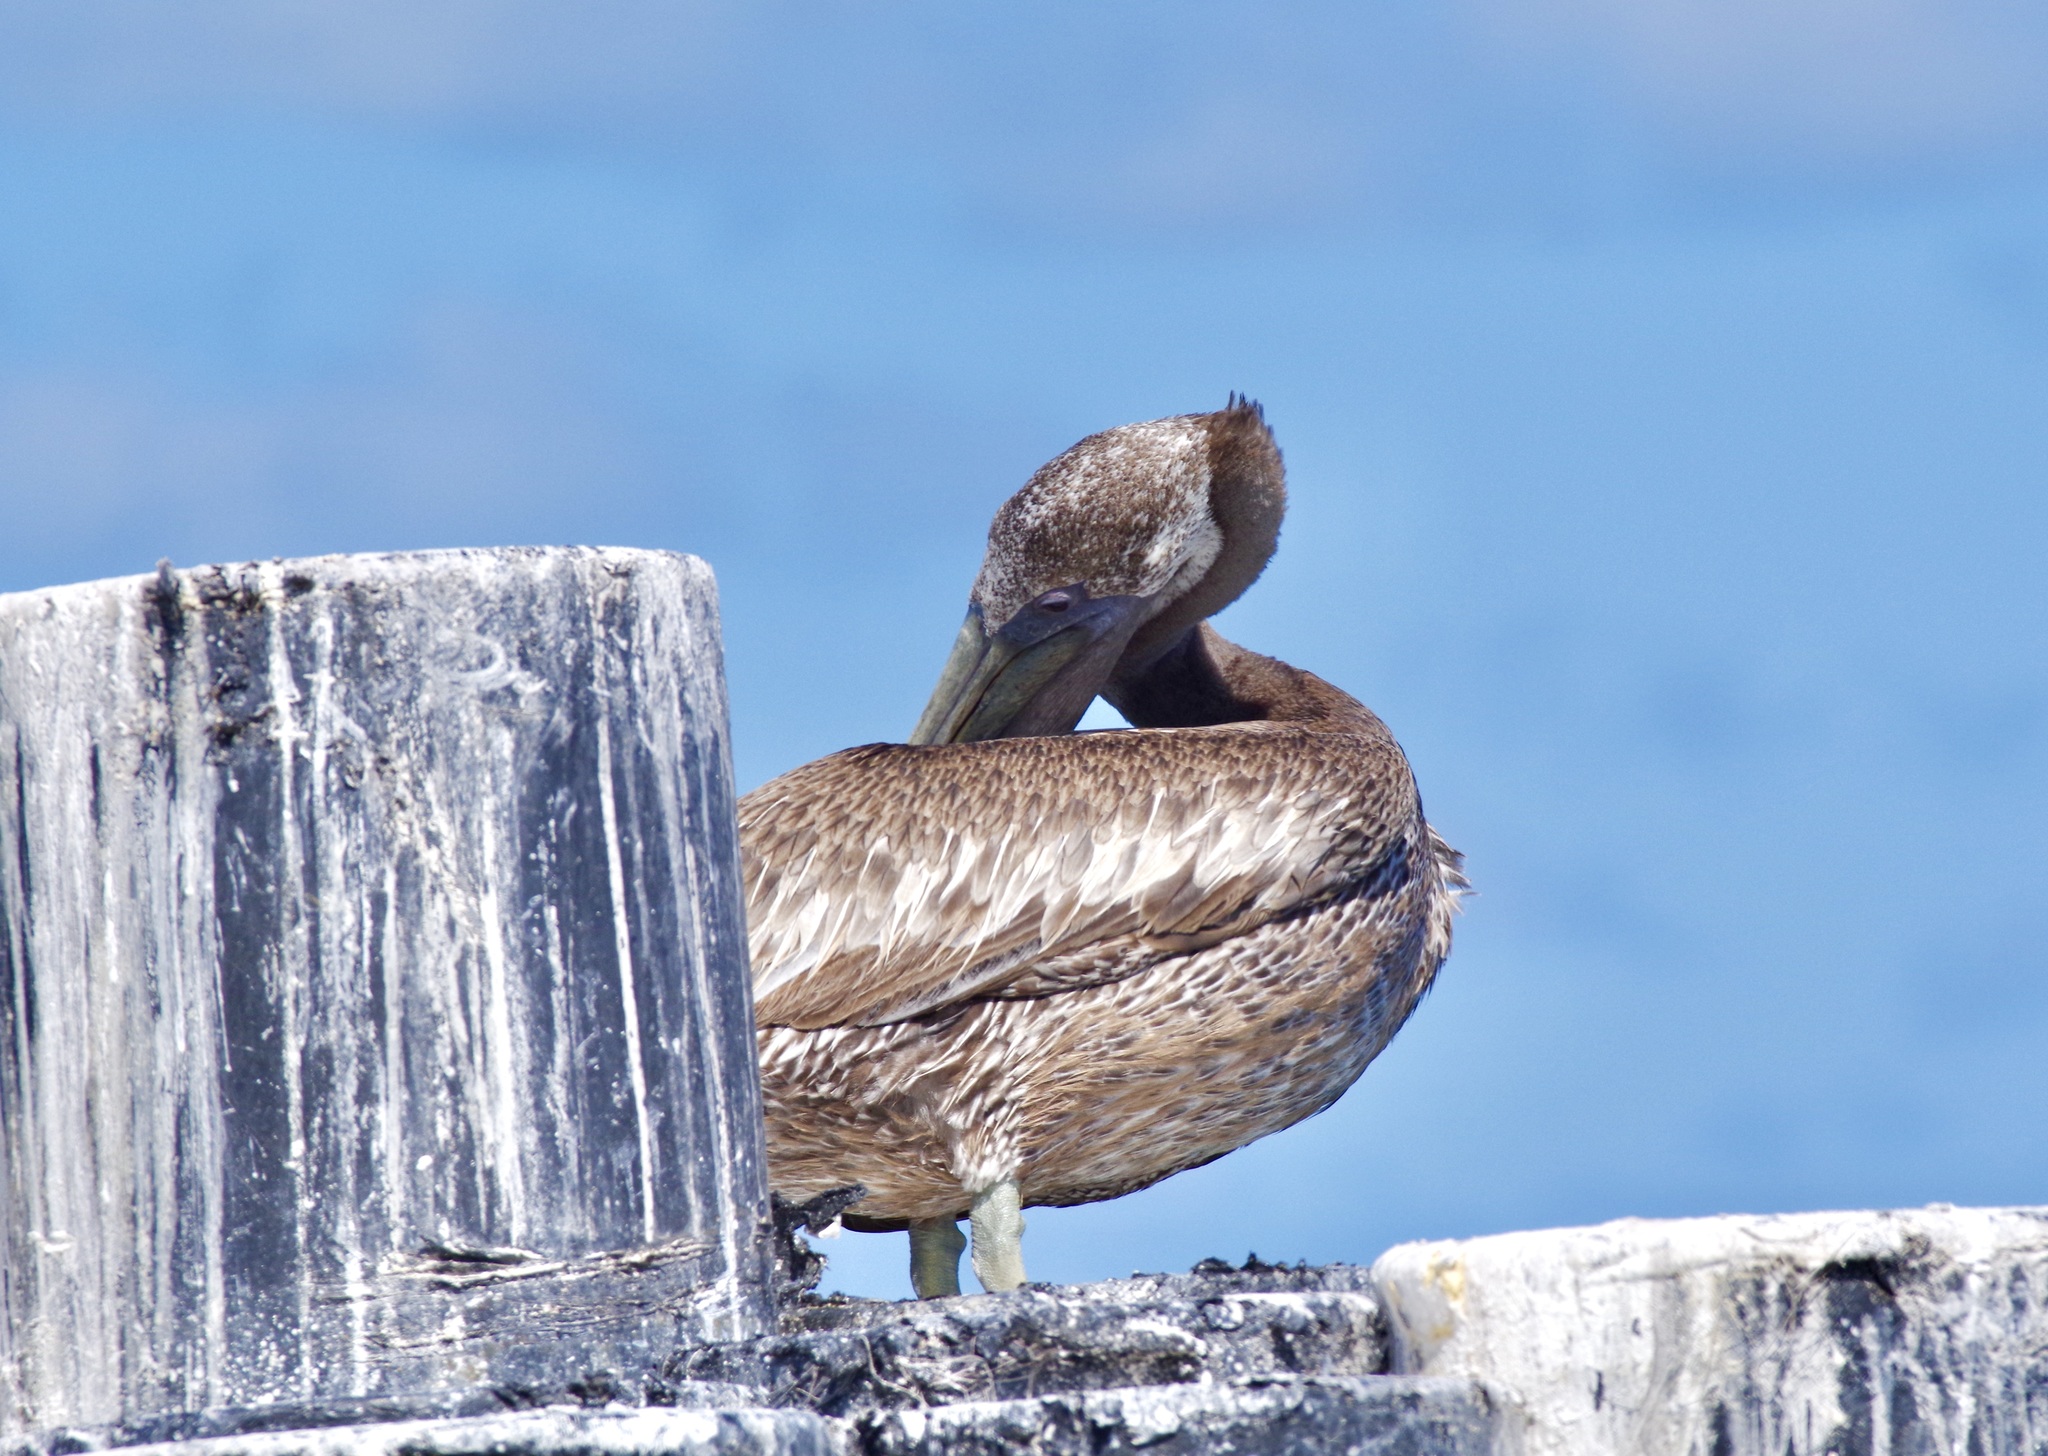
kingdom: Animalia
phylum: Chordata
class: Aves
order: Pelecaniformes
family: Pelecanidae
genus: Pelecanus
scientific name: Pelecanus occidentalis
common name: Brown pelican
